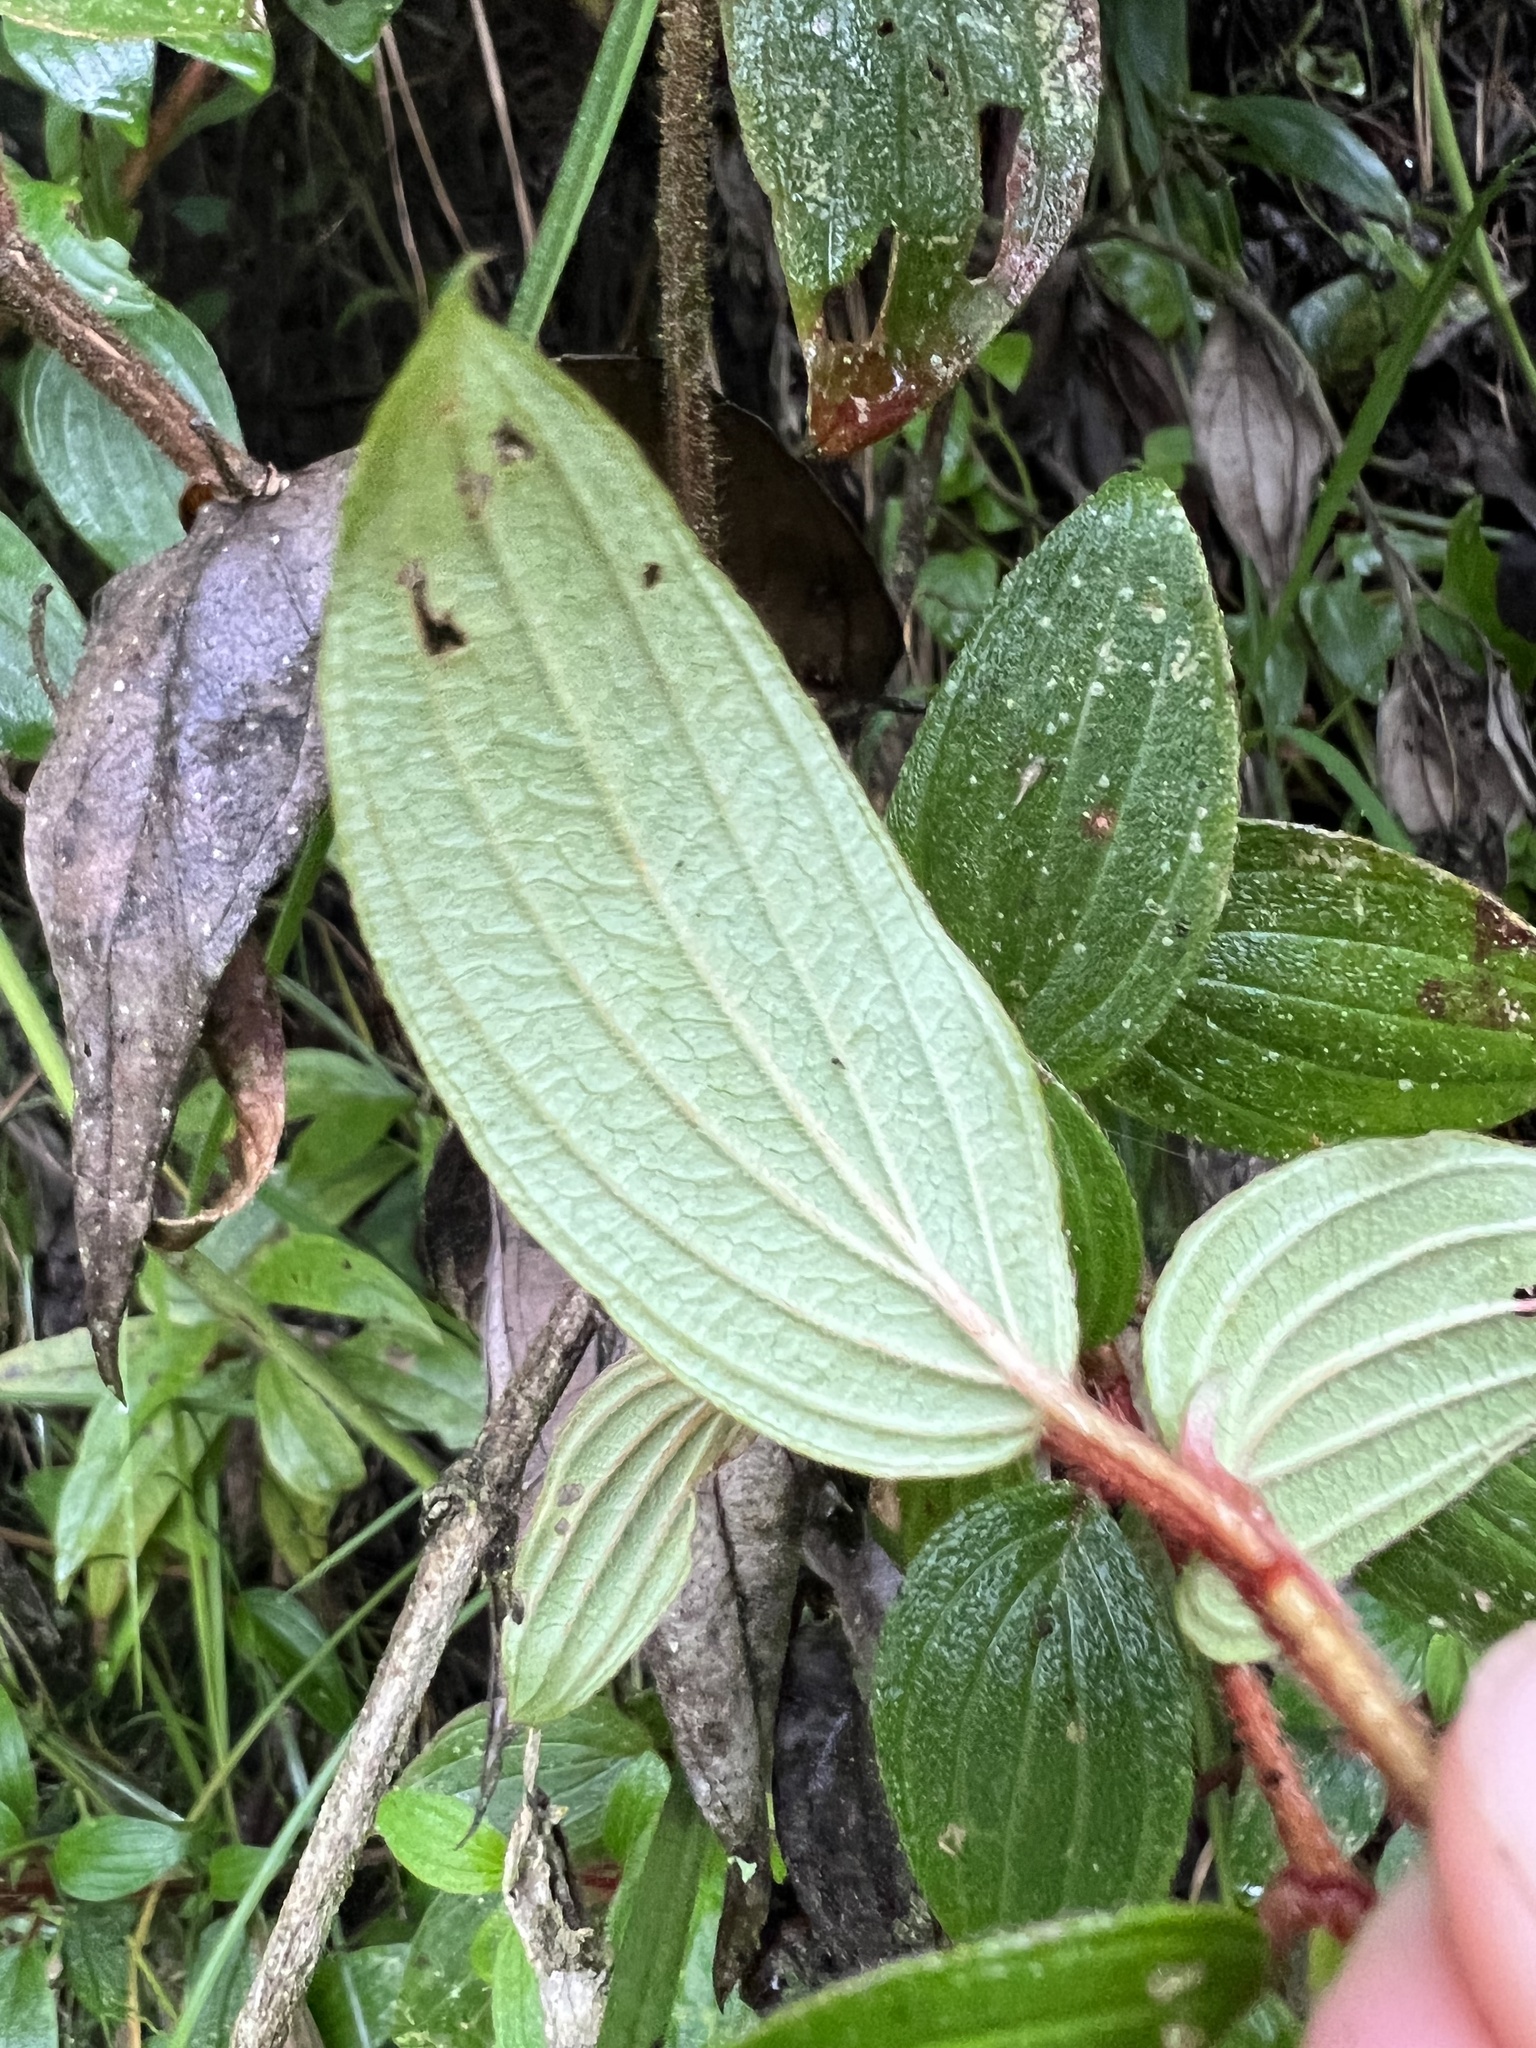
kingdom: Plantae
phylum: Tracheophyta
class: Magnoliopsida
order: Myrtales
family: Melastomataceae
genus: Monochaetum
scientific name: Monochaetum multiflorum
